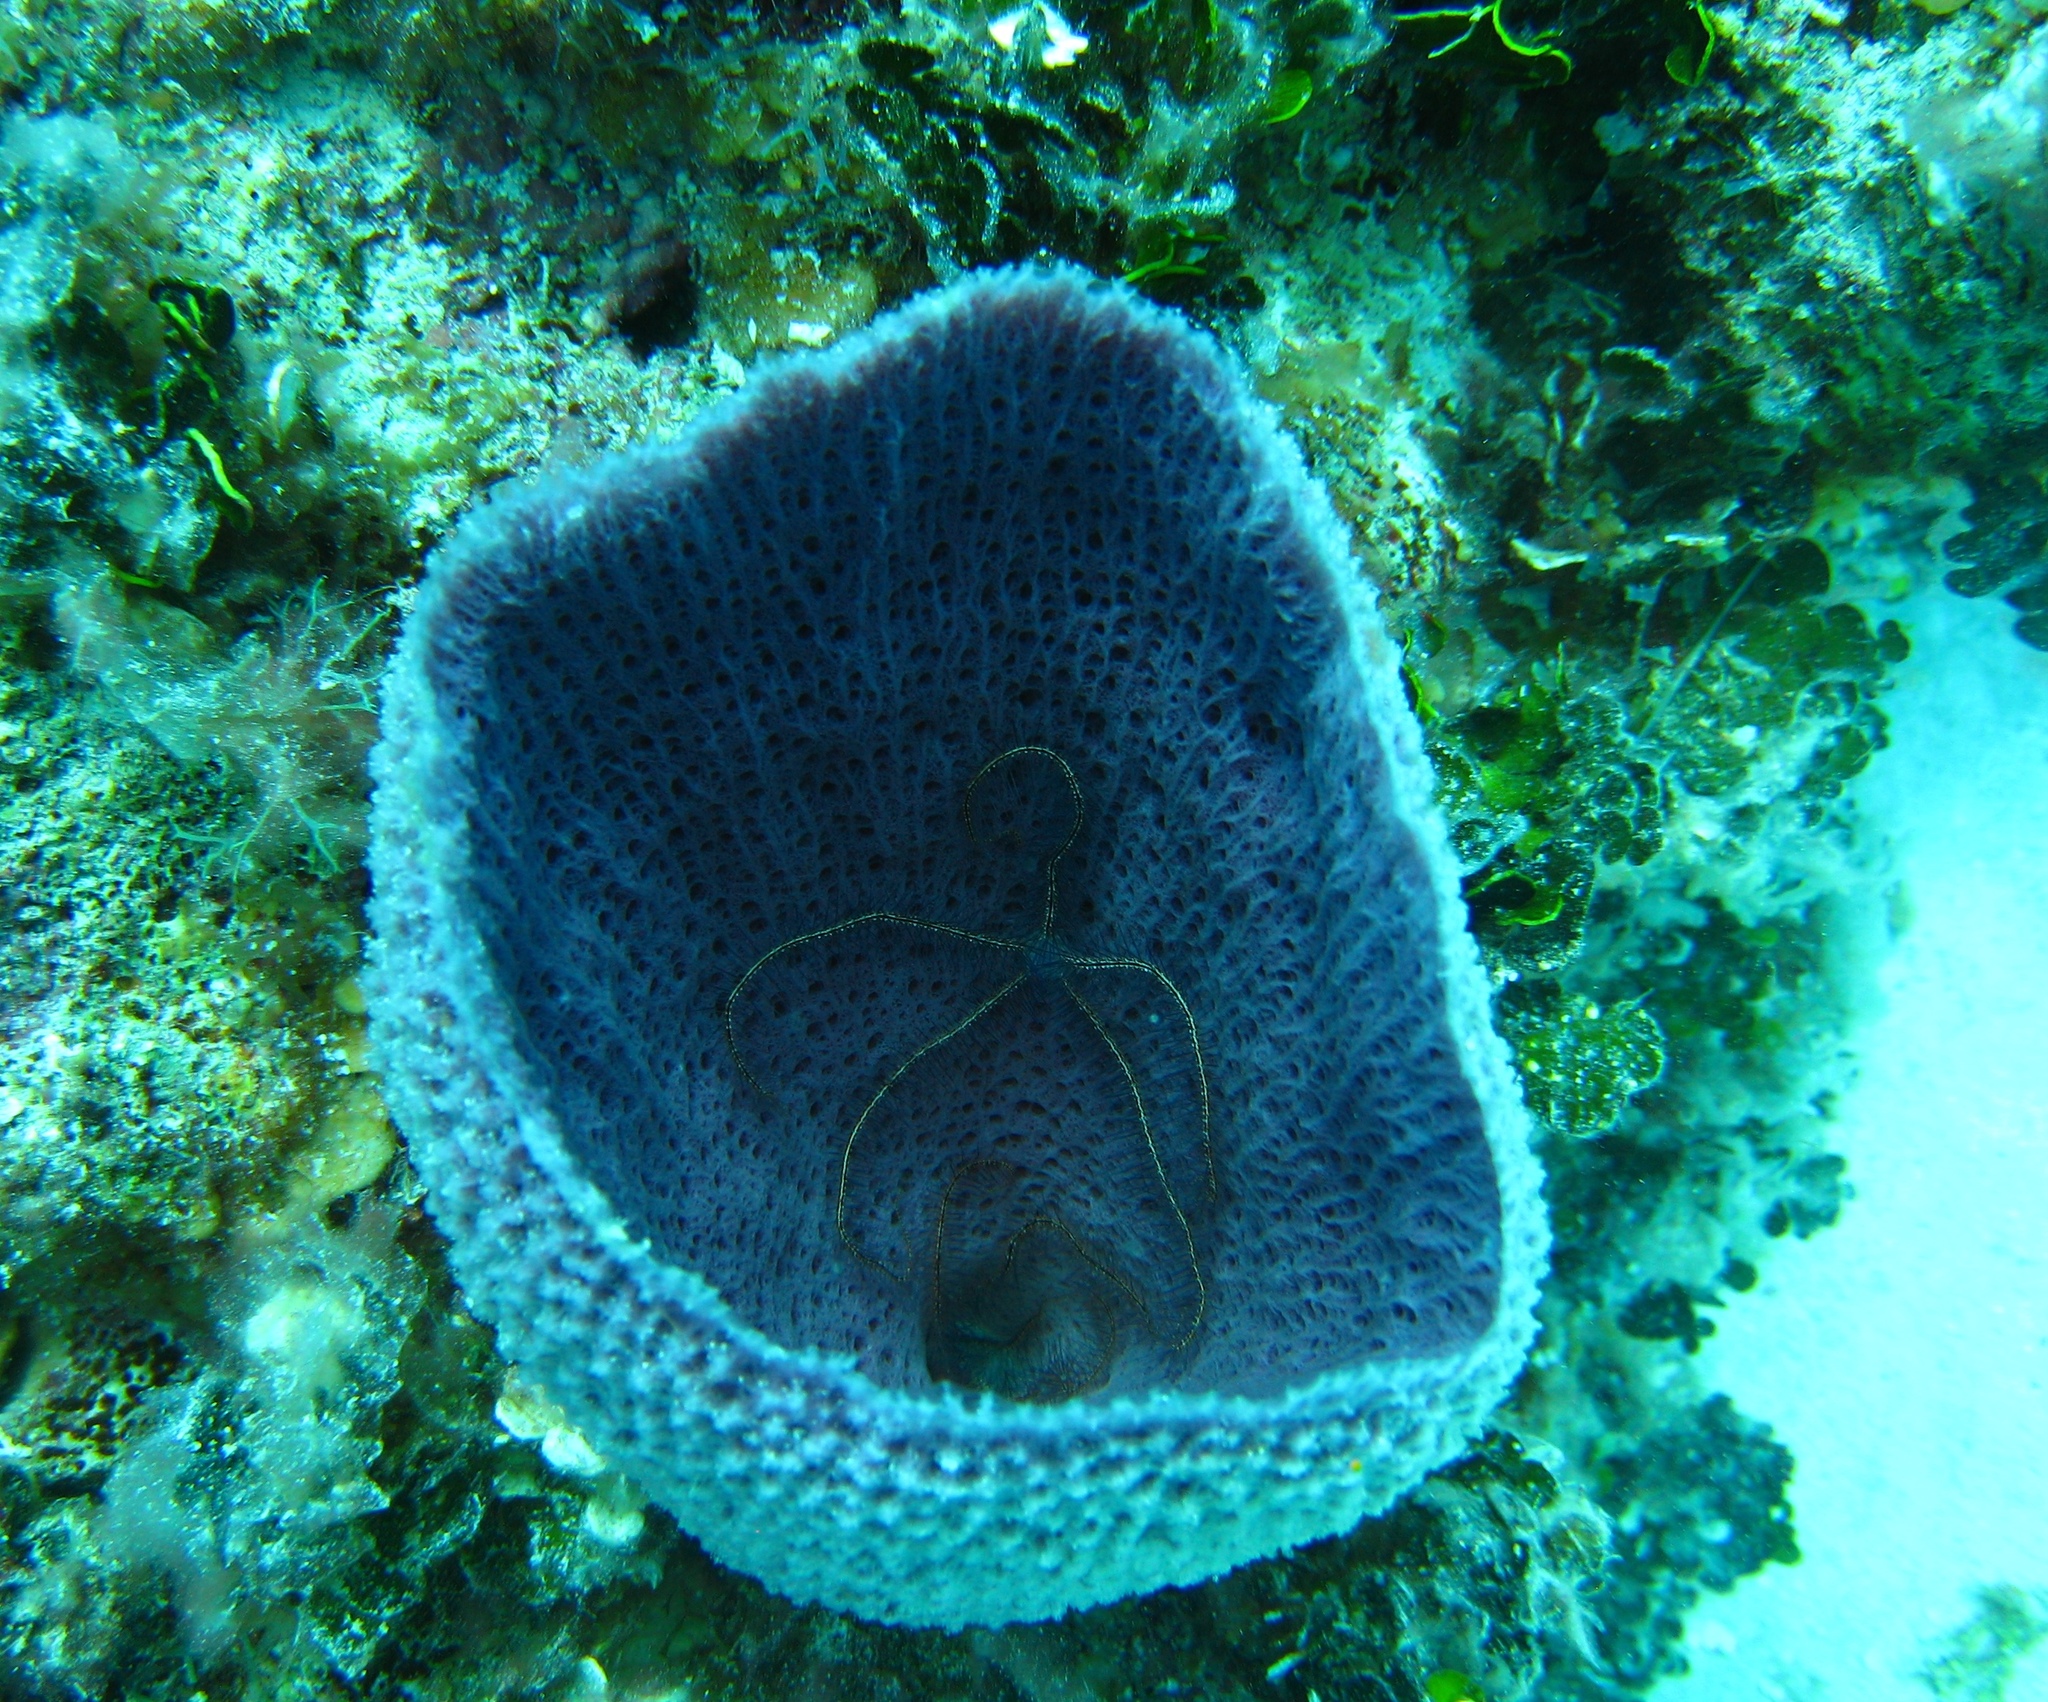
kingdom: Animalia
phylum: Porifera
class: Demospongiae
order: Haplosclerida
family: Niphatidae
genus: Niphates
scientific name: Niphates digitalis
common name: Pink vase sponge
